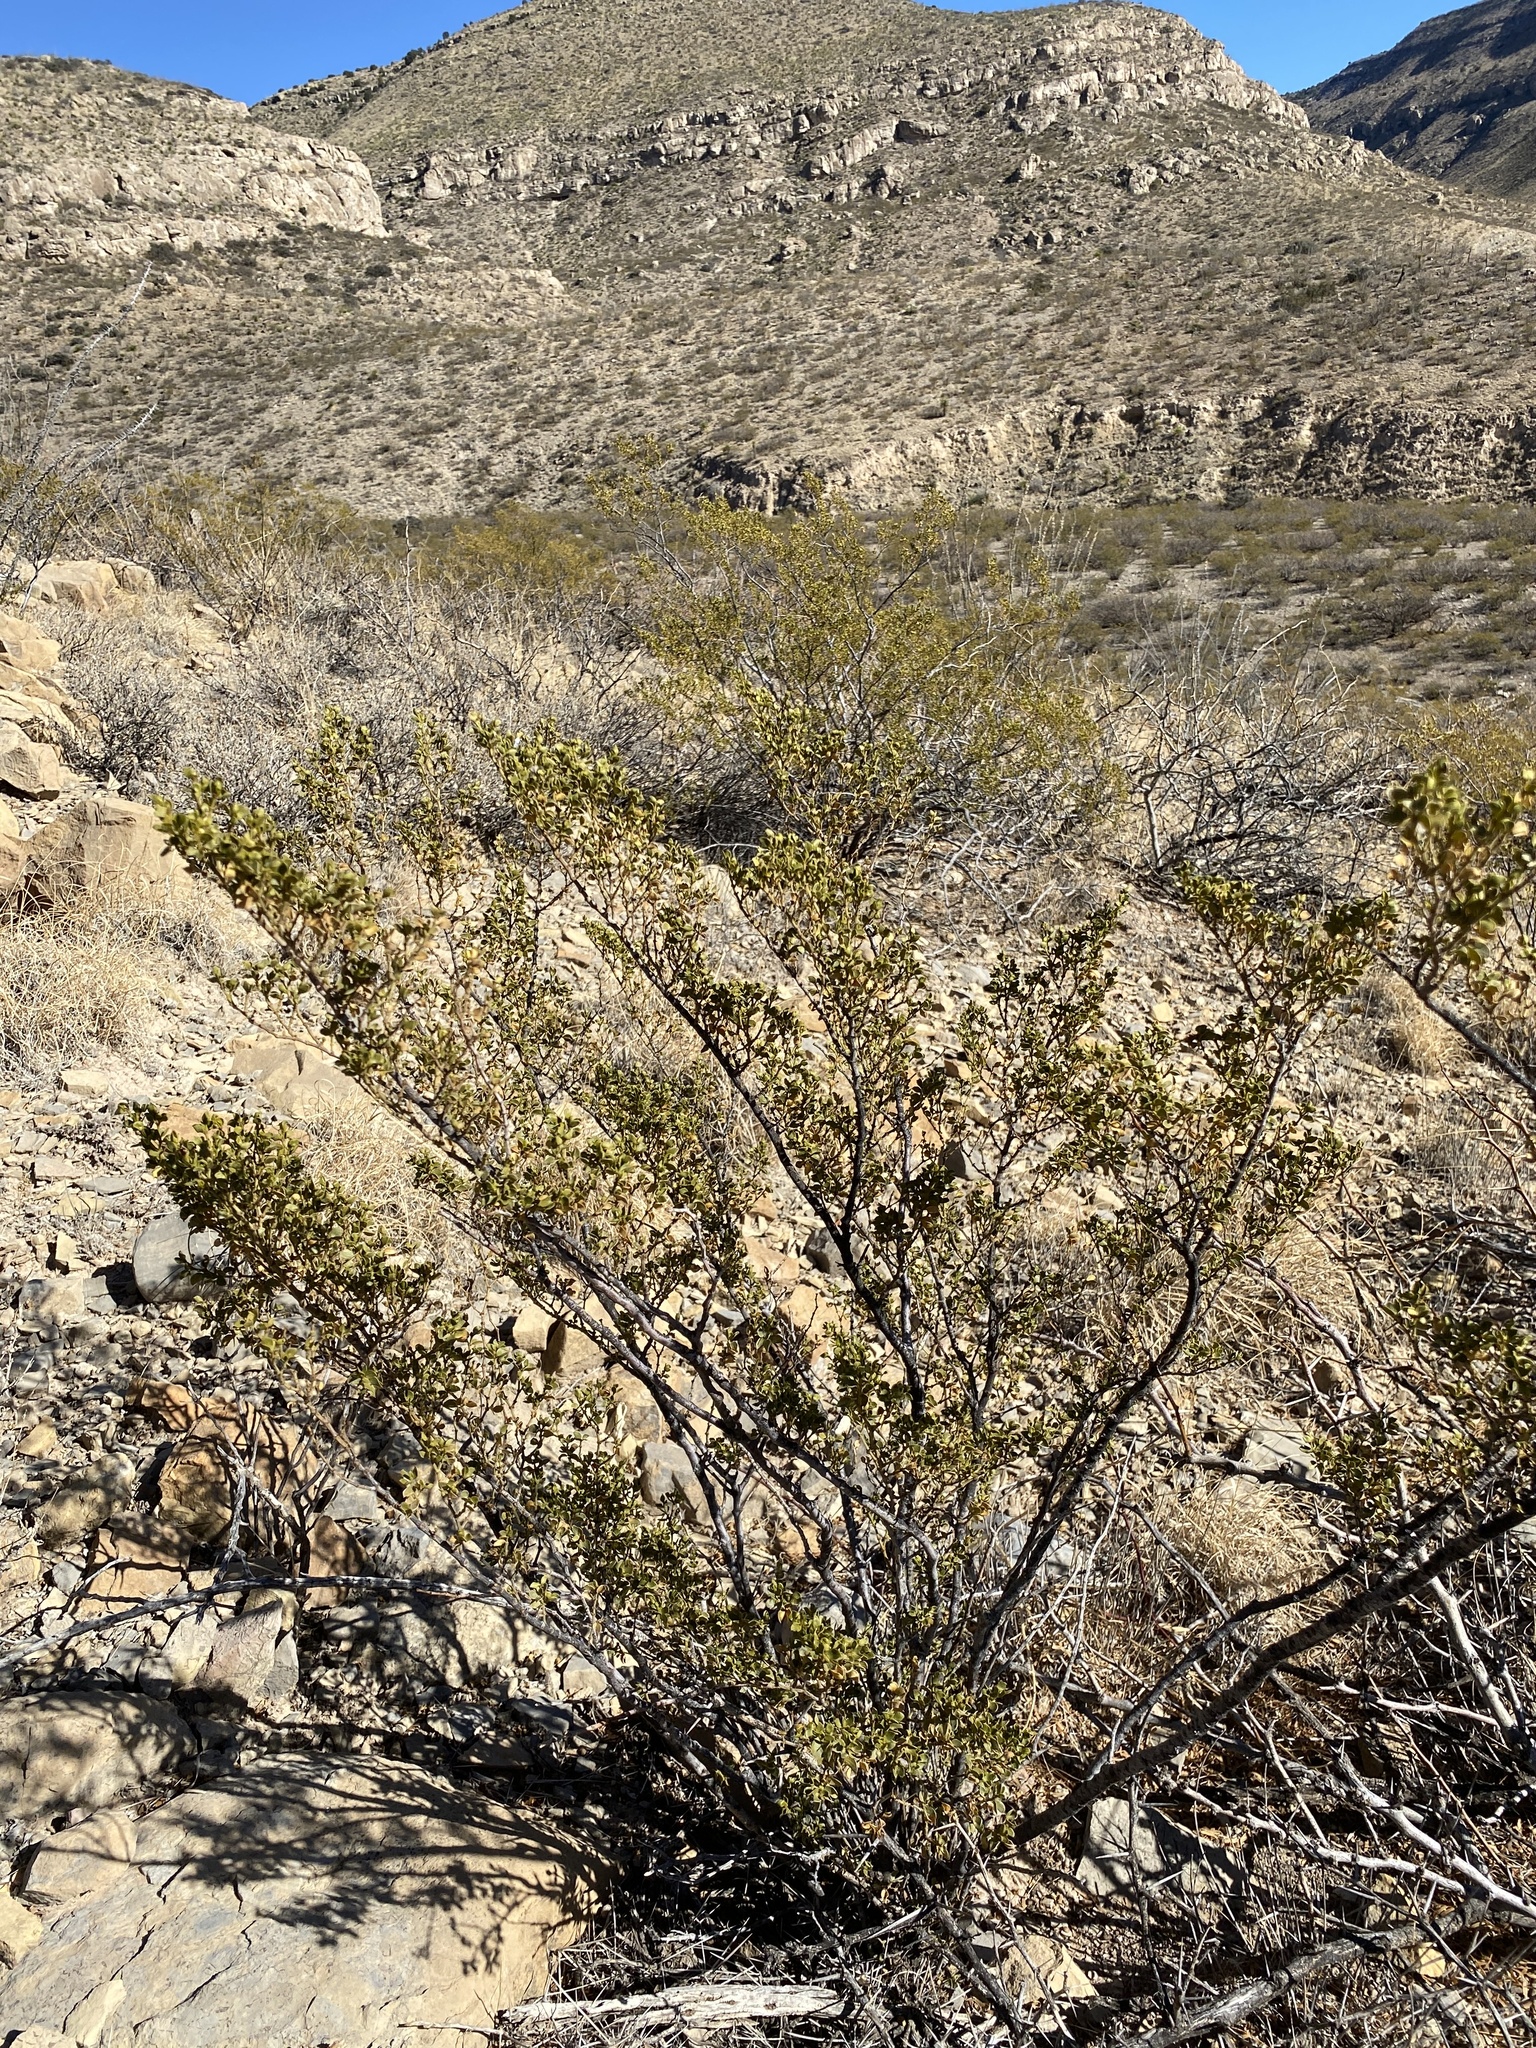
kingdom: Plantae
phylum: Tracheophyta
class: Magnoliopsida
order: Zygophyllales
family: Zygophyllaceae
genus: Larrea
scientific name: Larrea tridentata
